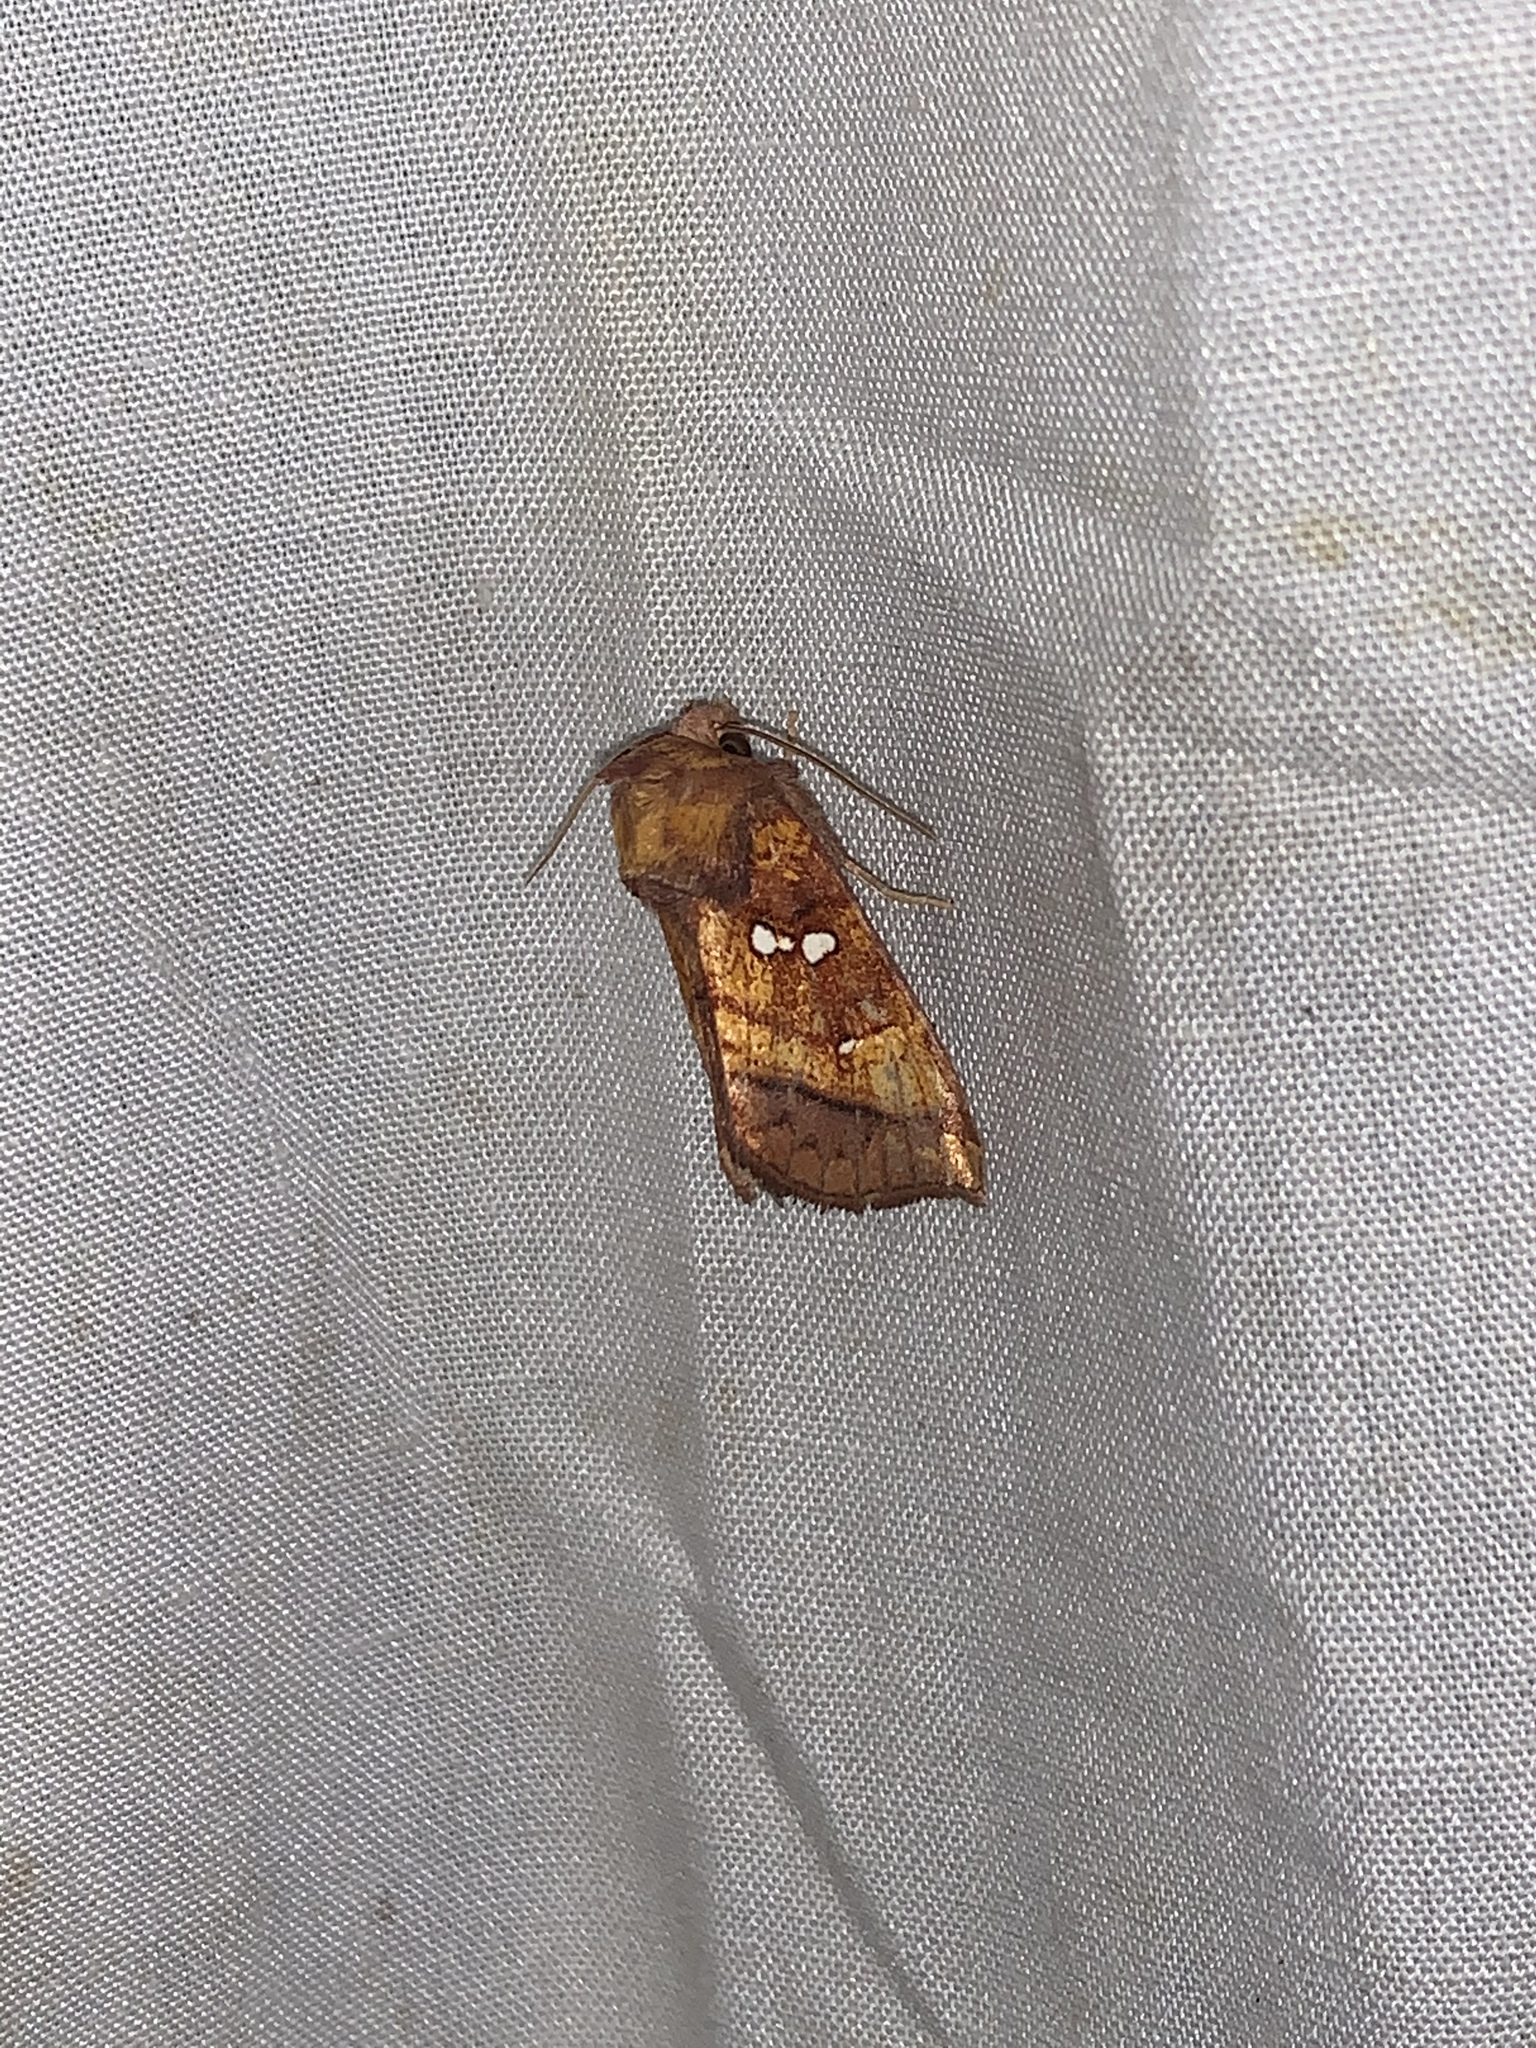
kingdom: Animalia
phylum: Arthropoda
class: Insecta
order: Lepidoptera
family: Noctuidae
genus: Papaipema
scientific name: Papaipema lysimachiae
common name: Loosestrife borer moth
